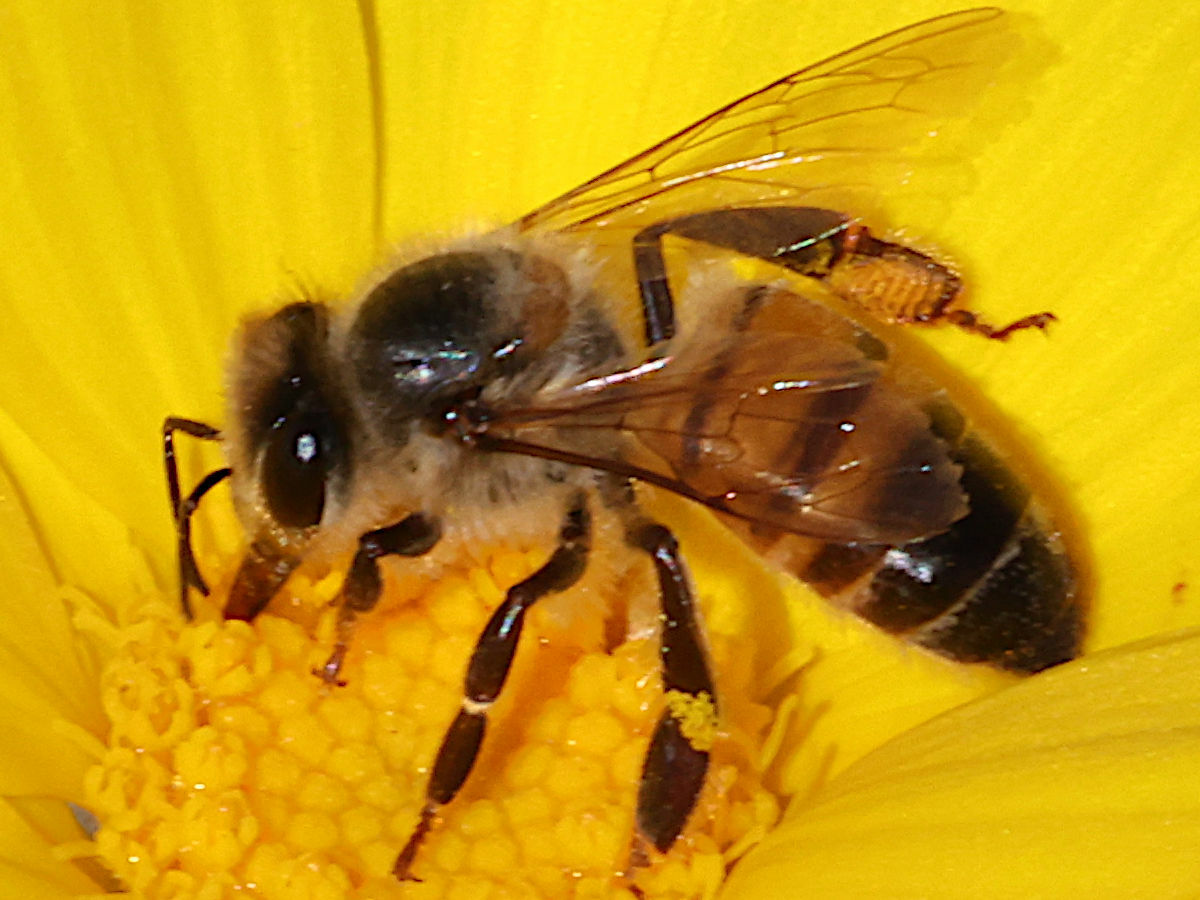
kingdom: Animalia
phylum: Arthropoda
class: Insecta
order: Hymenoptera
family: Apidae
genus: Apis
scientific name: Apis mellifera
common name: Honey bee
